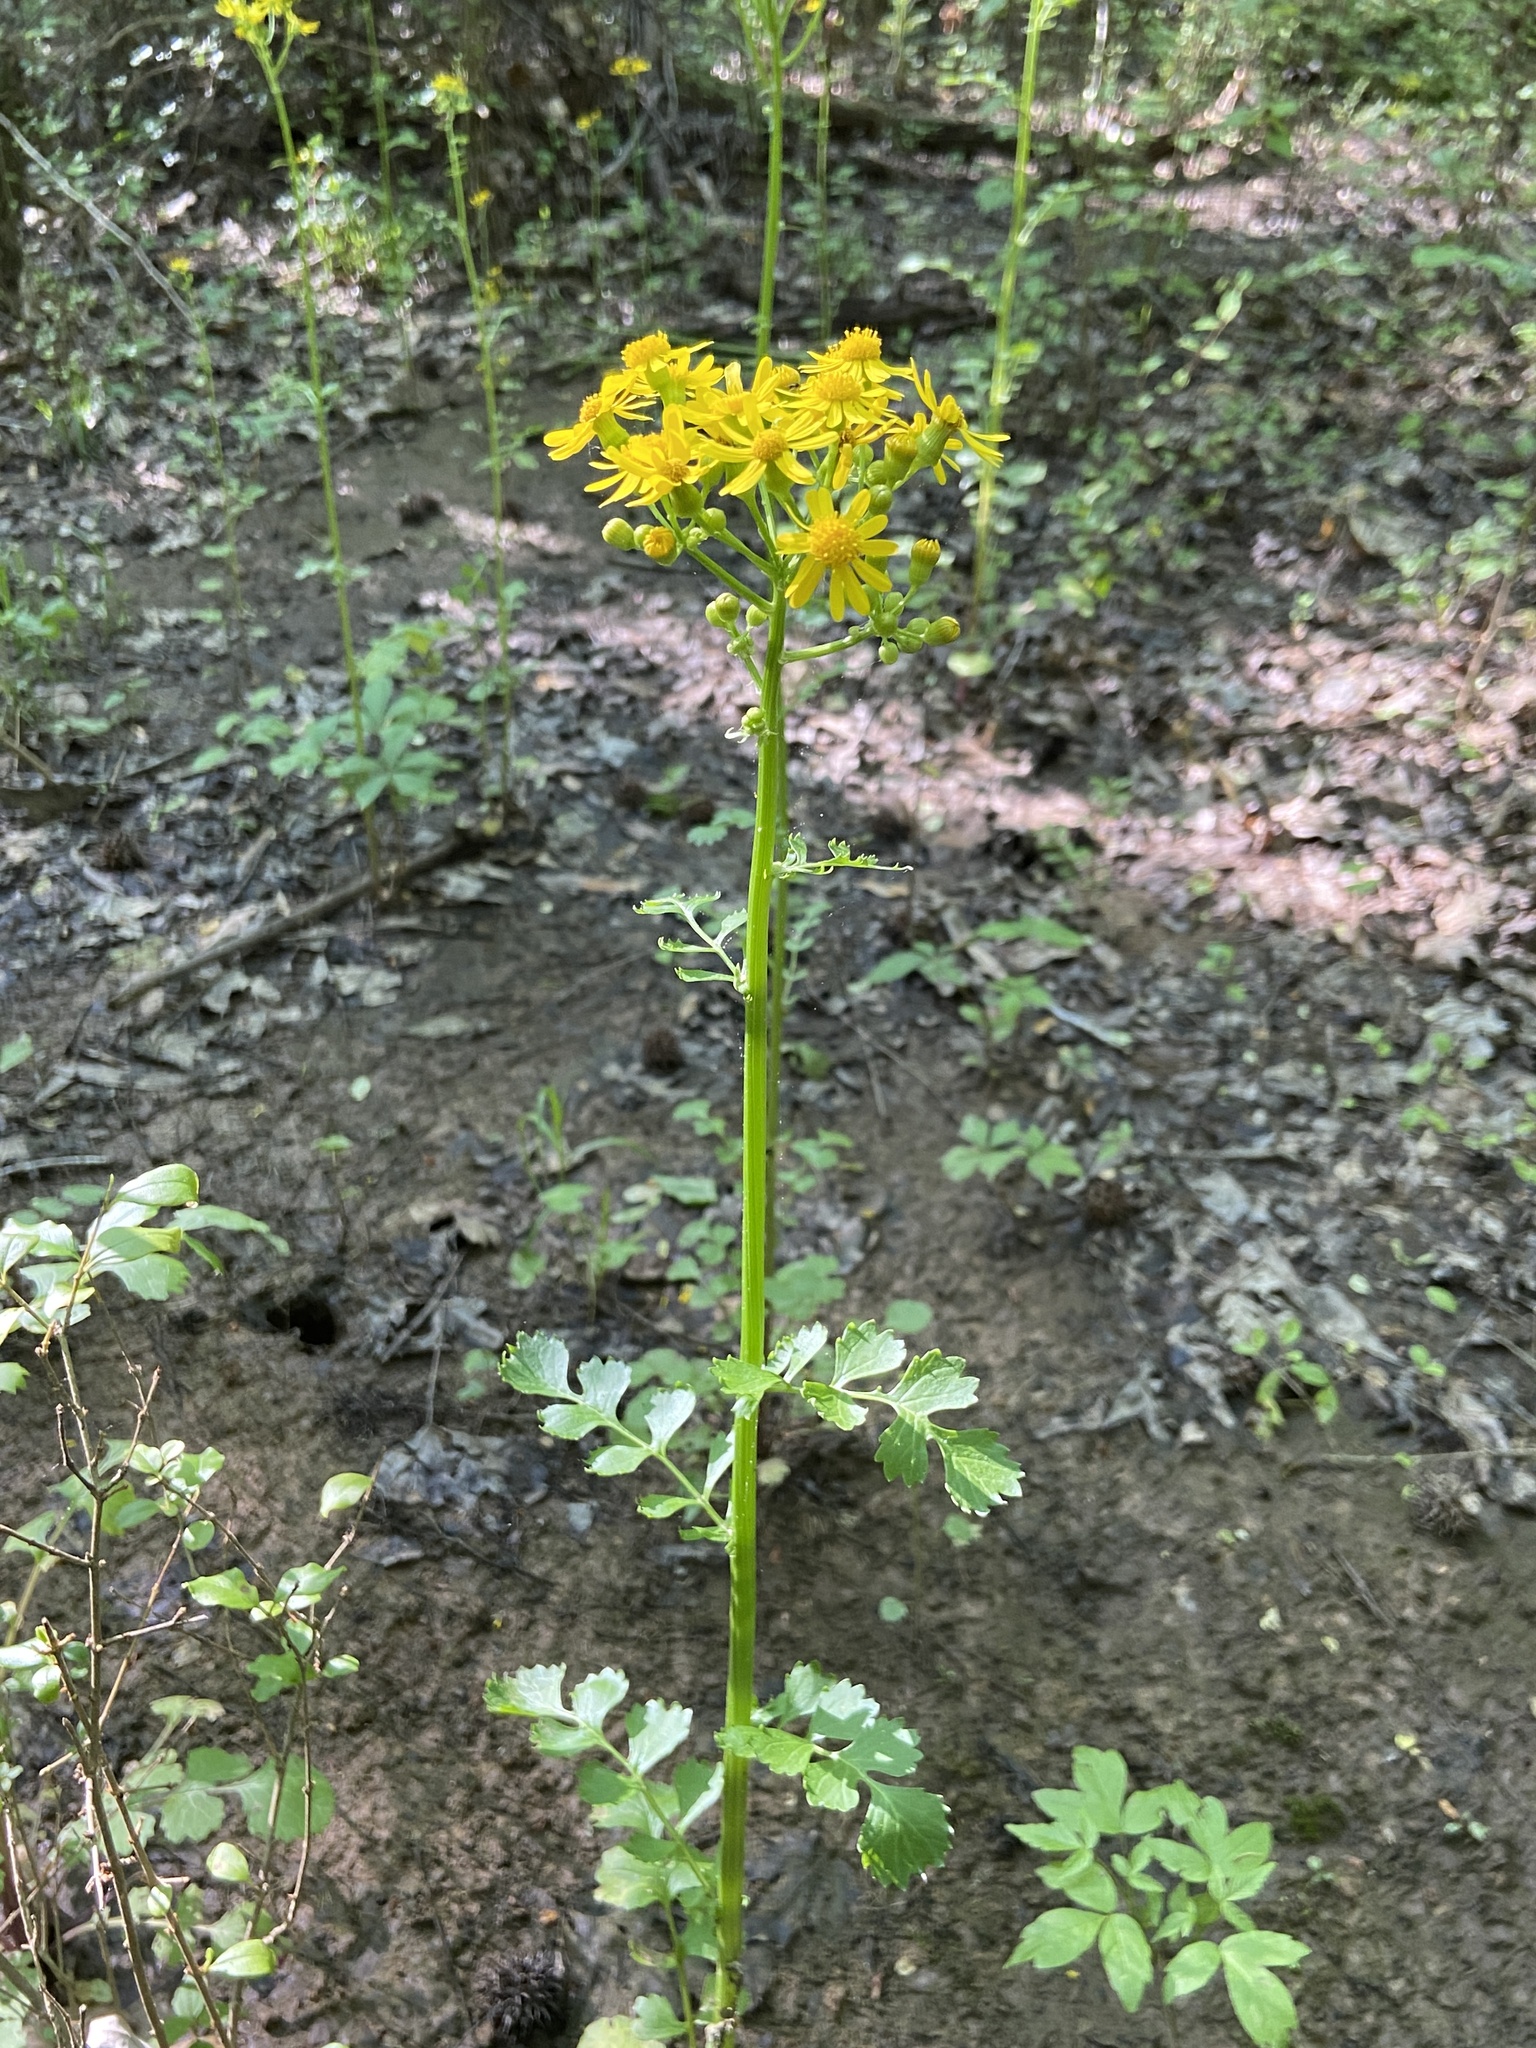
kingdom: Plantae
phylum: Tracheophyta
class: Magnoliopsida
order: Asterales
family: Asteraceae
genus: Packera
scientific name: Packera glabella
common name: Butterweed
